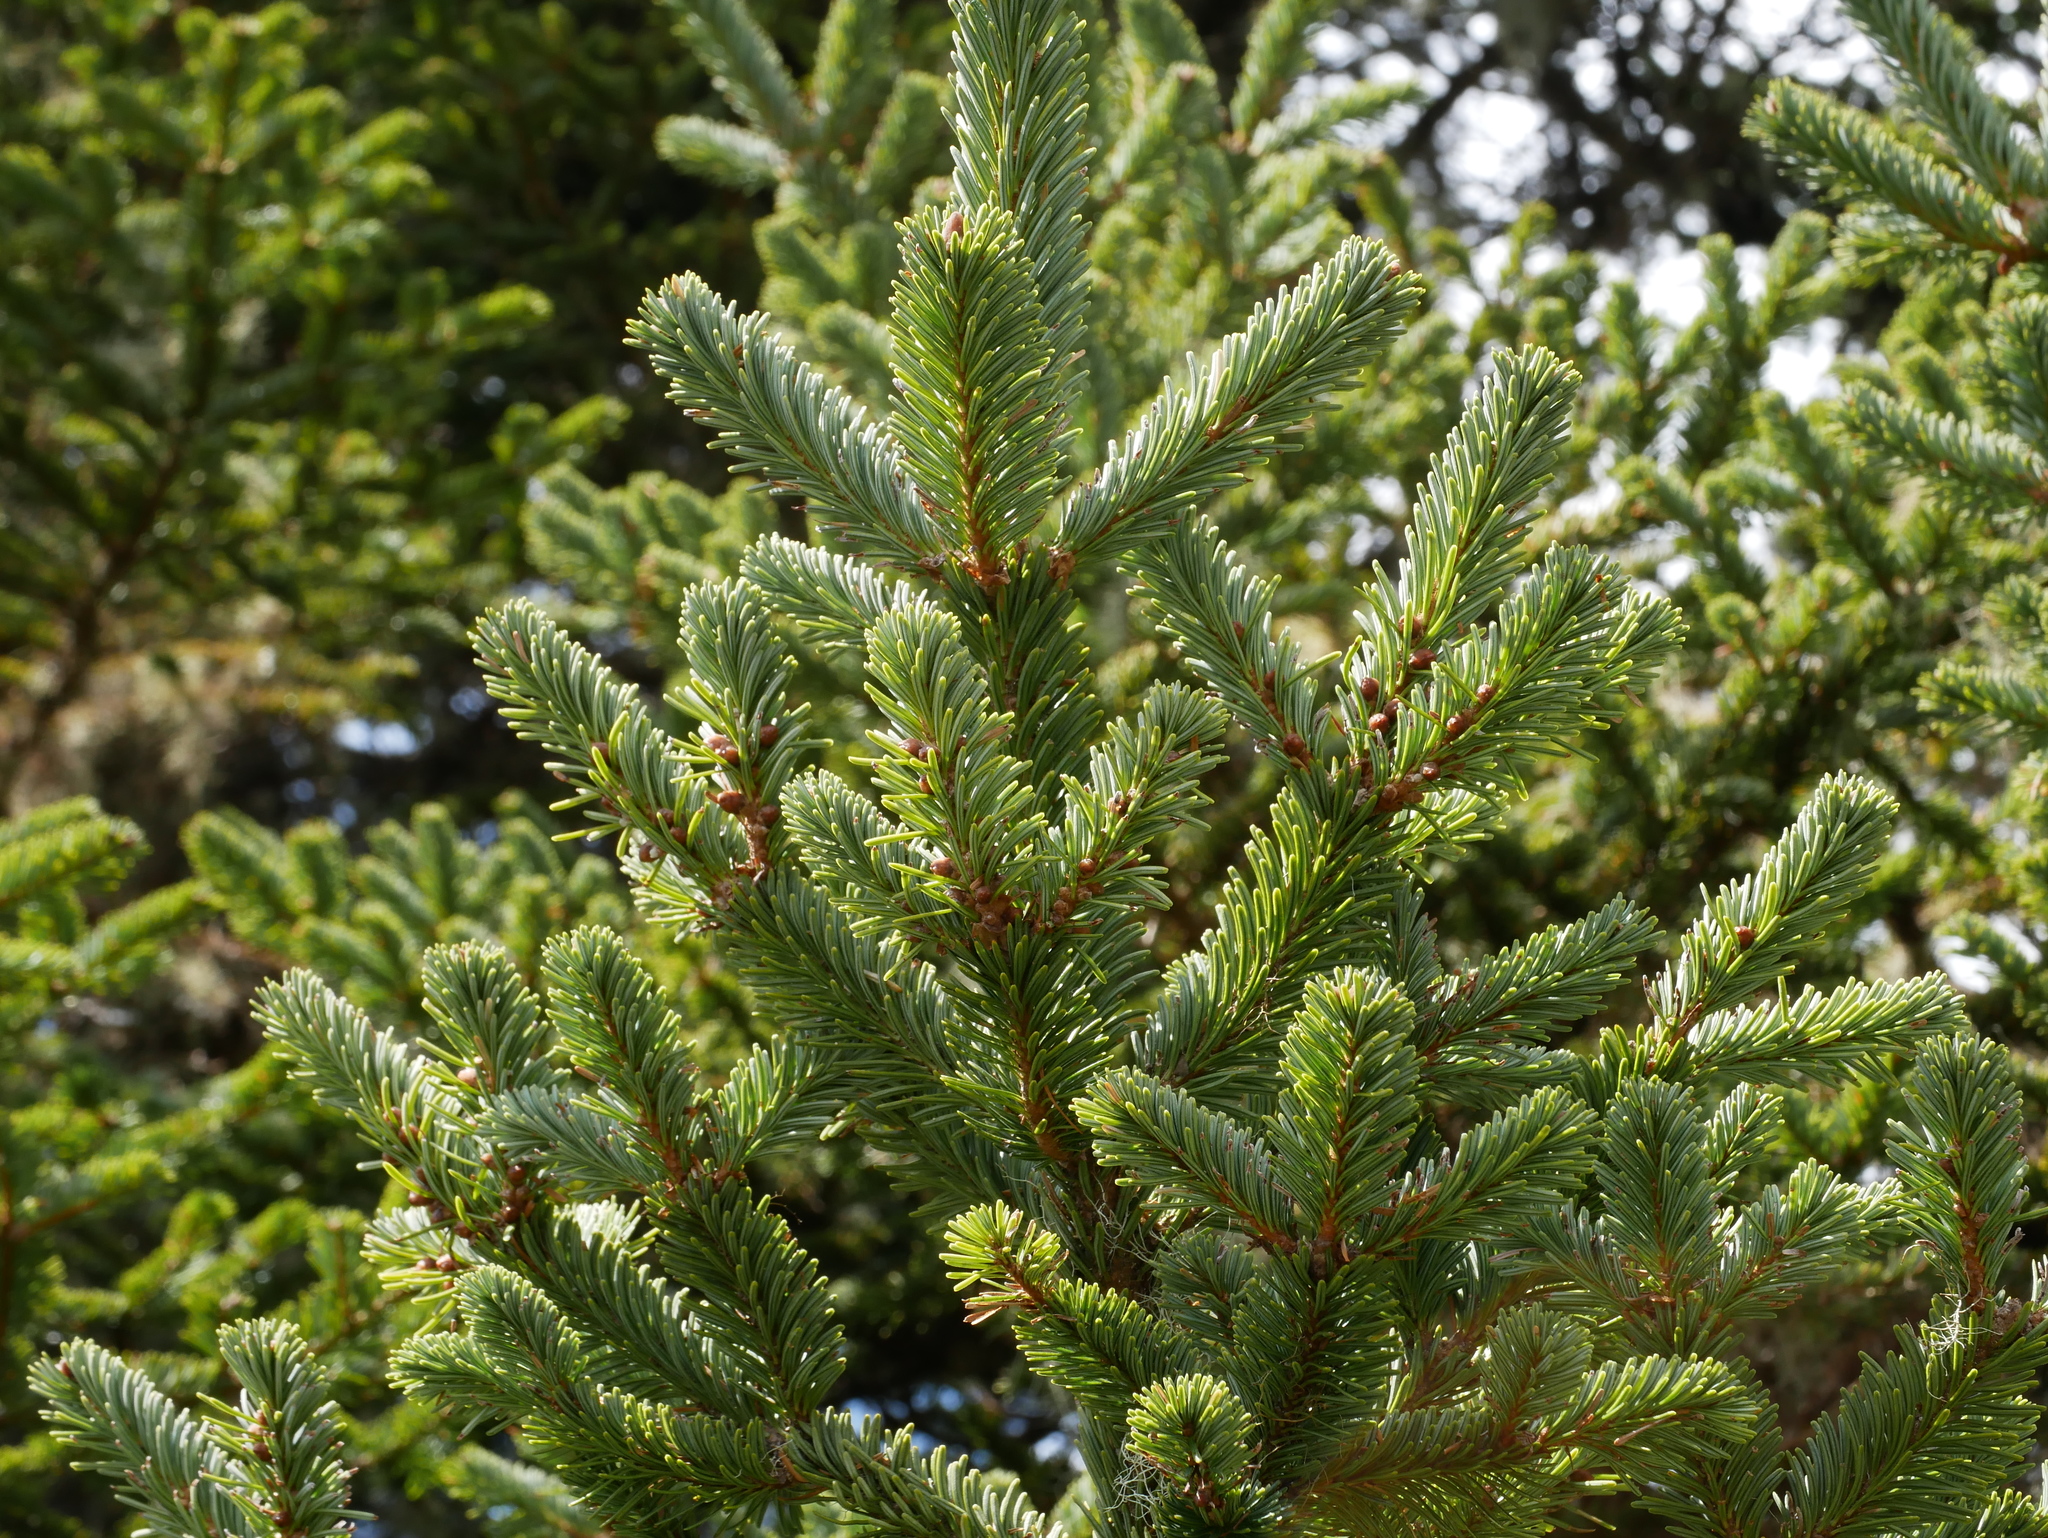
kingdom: Plantae
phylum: Tracheophyta
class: Pinopsida
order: Pinales
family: Pinaceae
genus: Abies
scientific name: Abies kawakamii
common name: Taiwan fir
